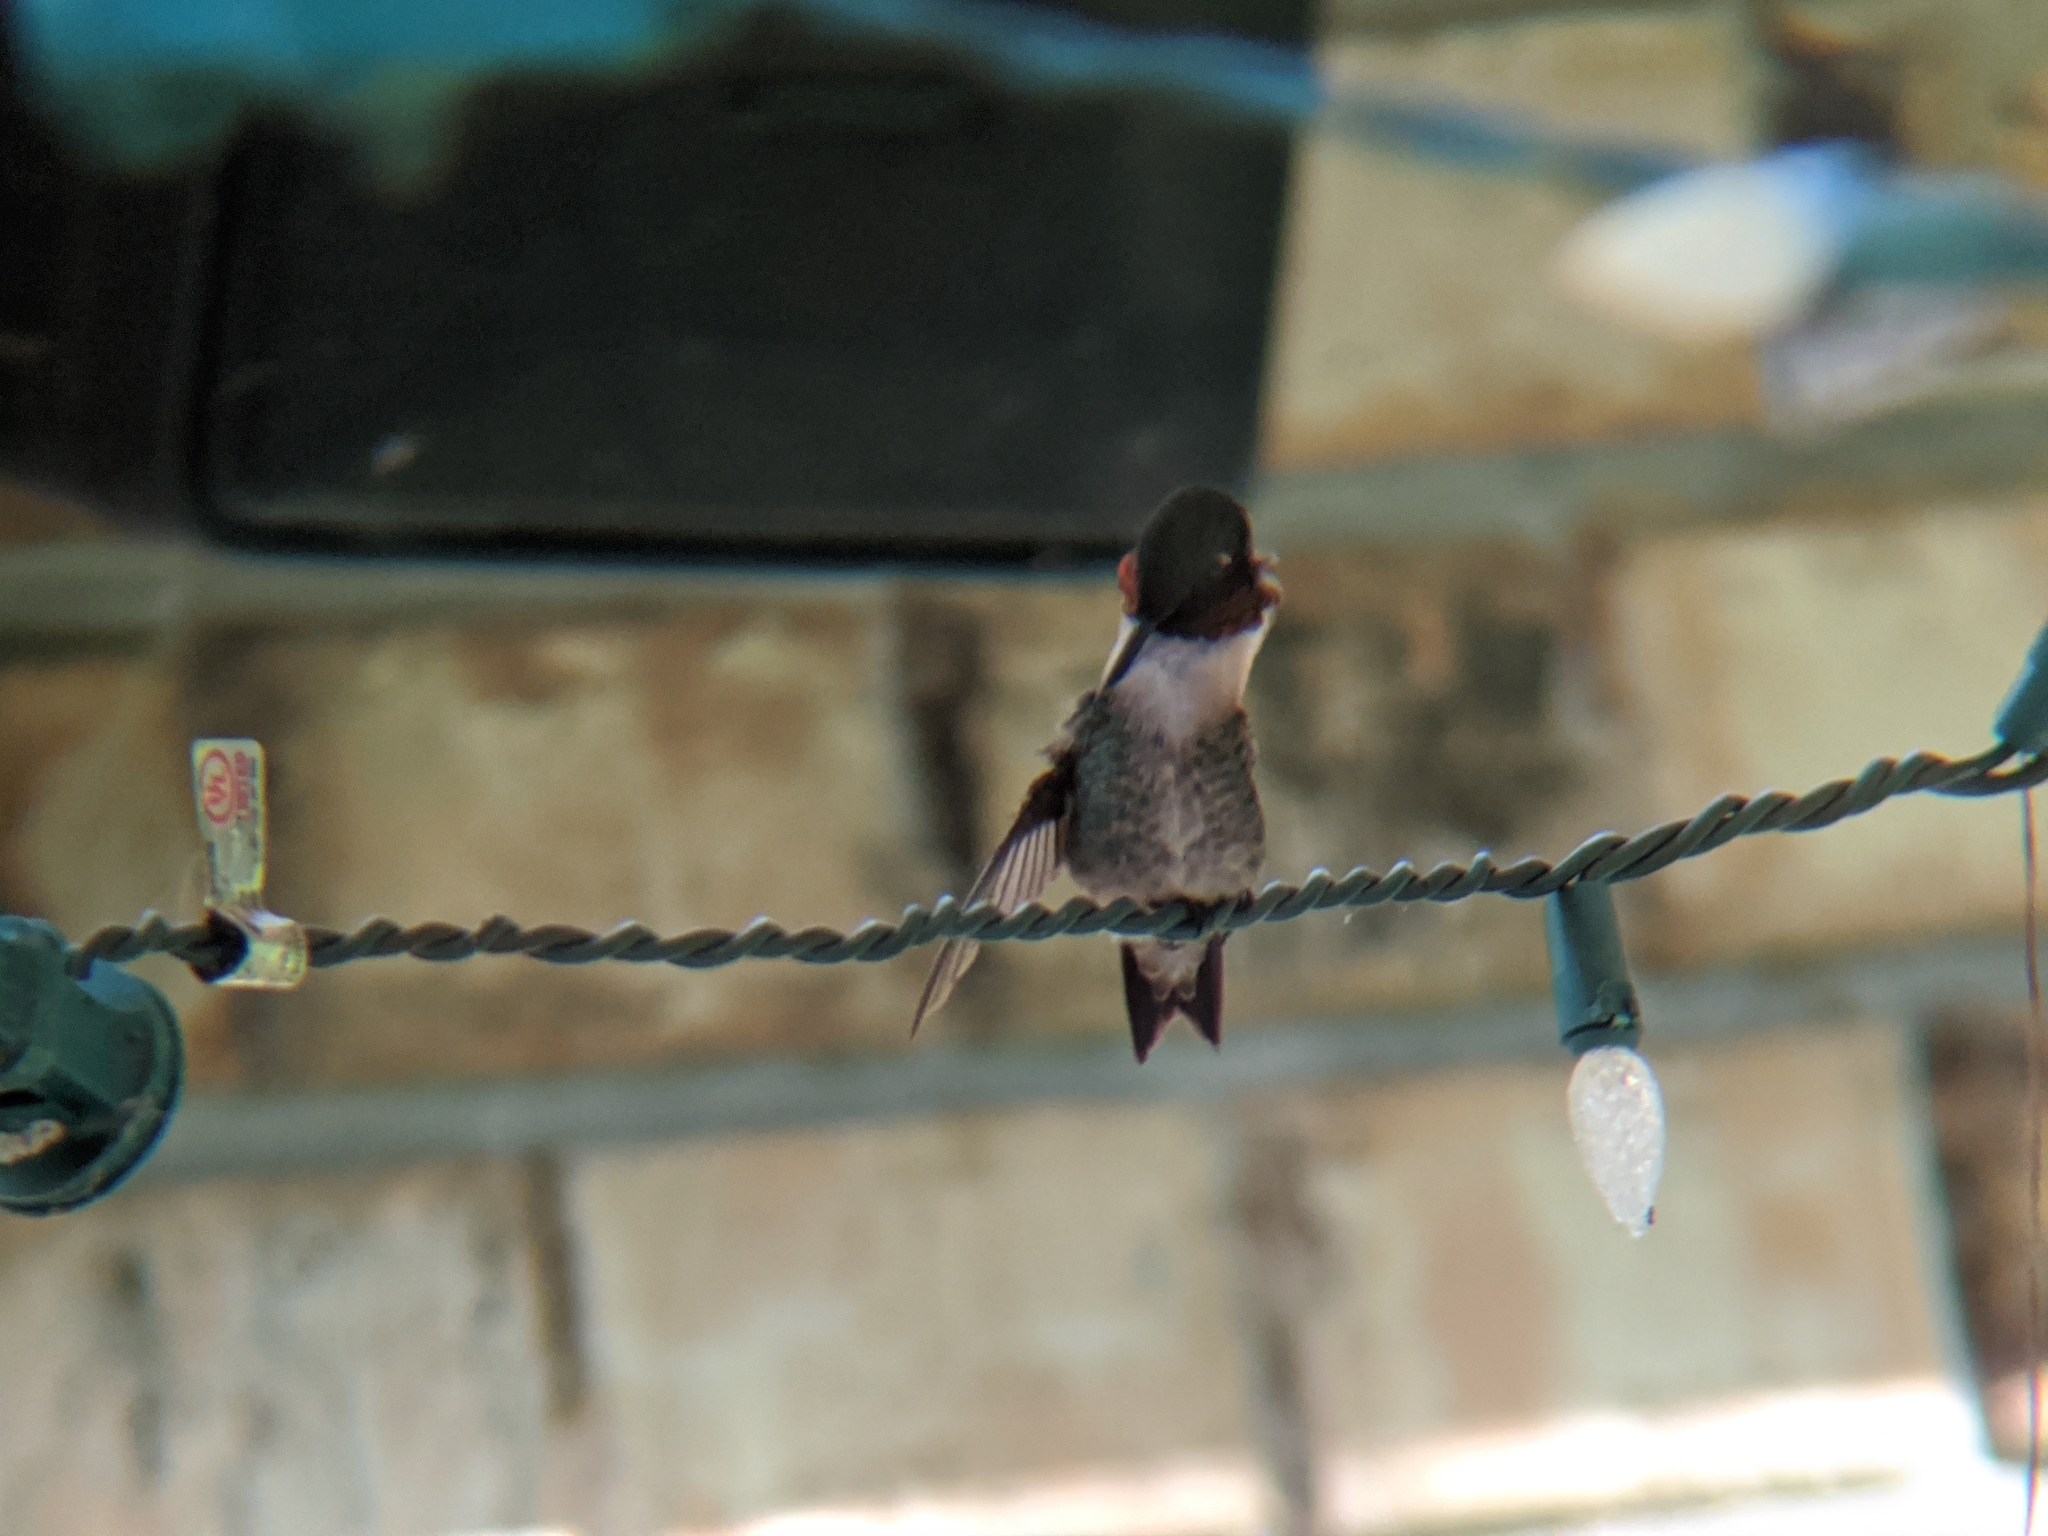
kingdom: Animalia
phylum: Chordata
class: Aves
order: Apodiformes
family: Trochilidae
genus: Archilochus
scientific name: Archilochus colubris
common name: Ruby-throated hummingbird
